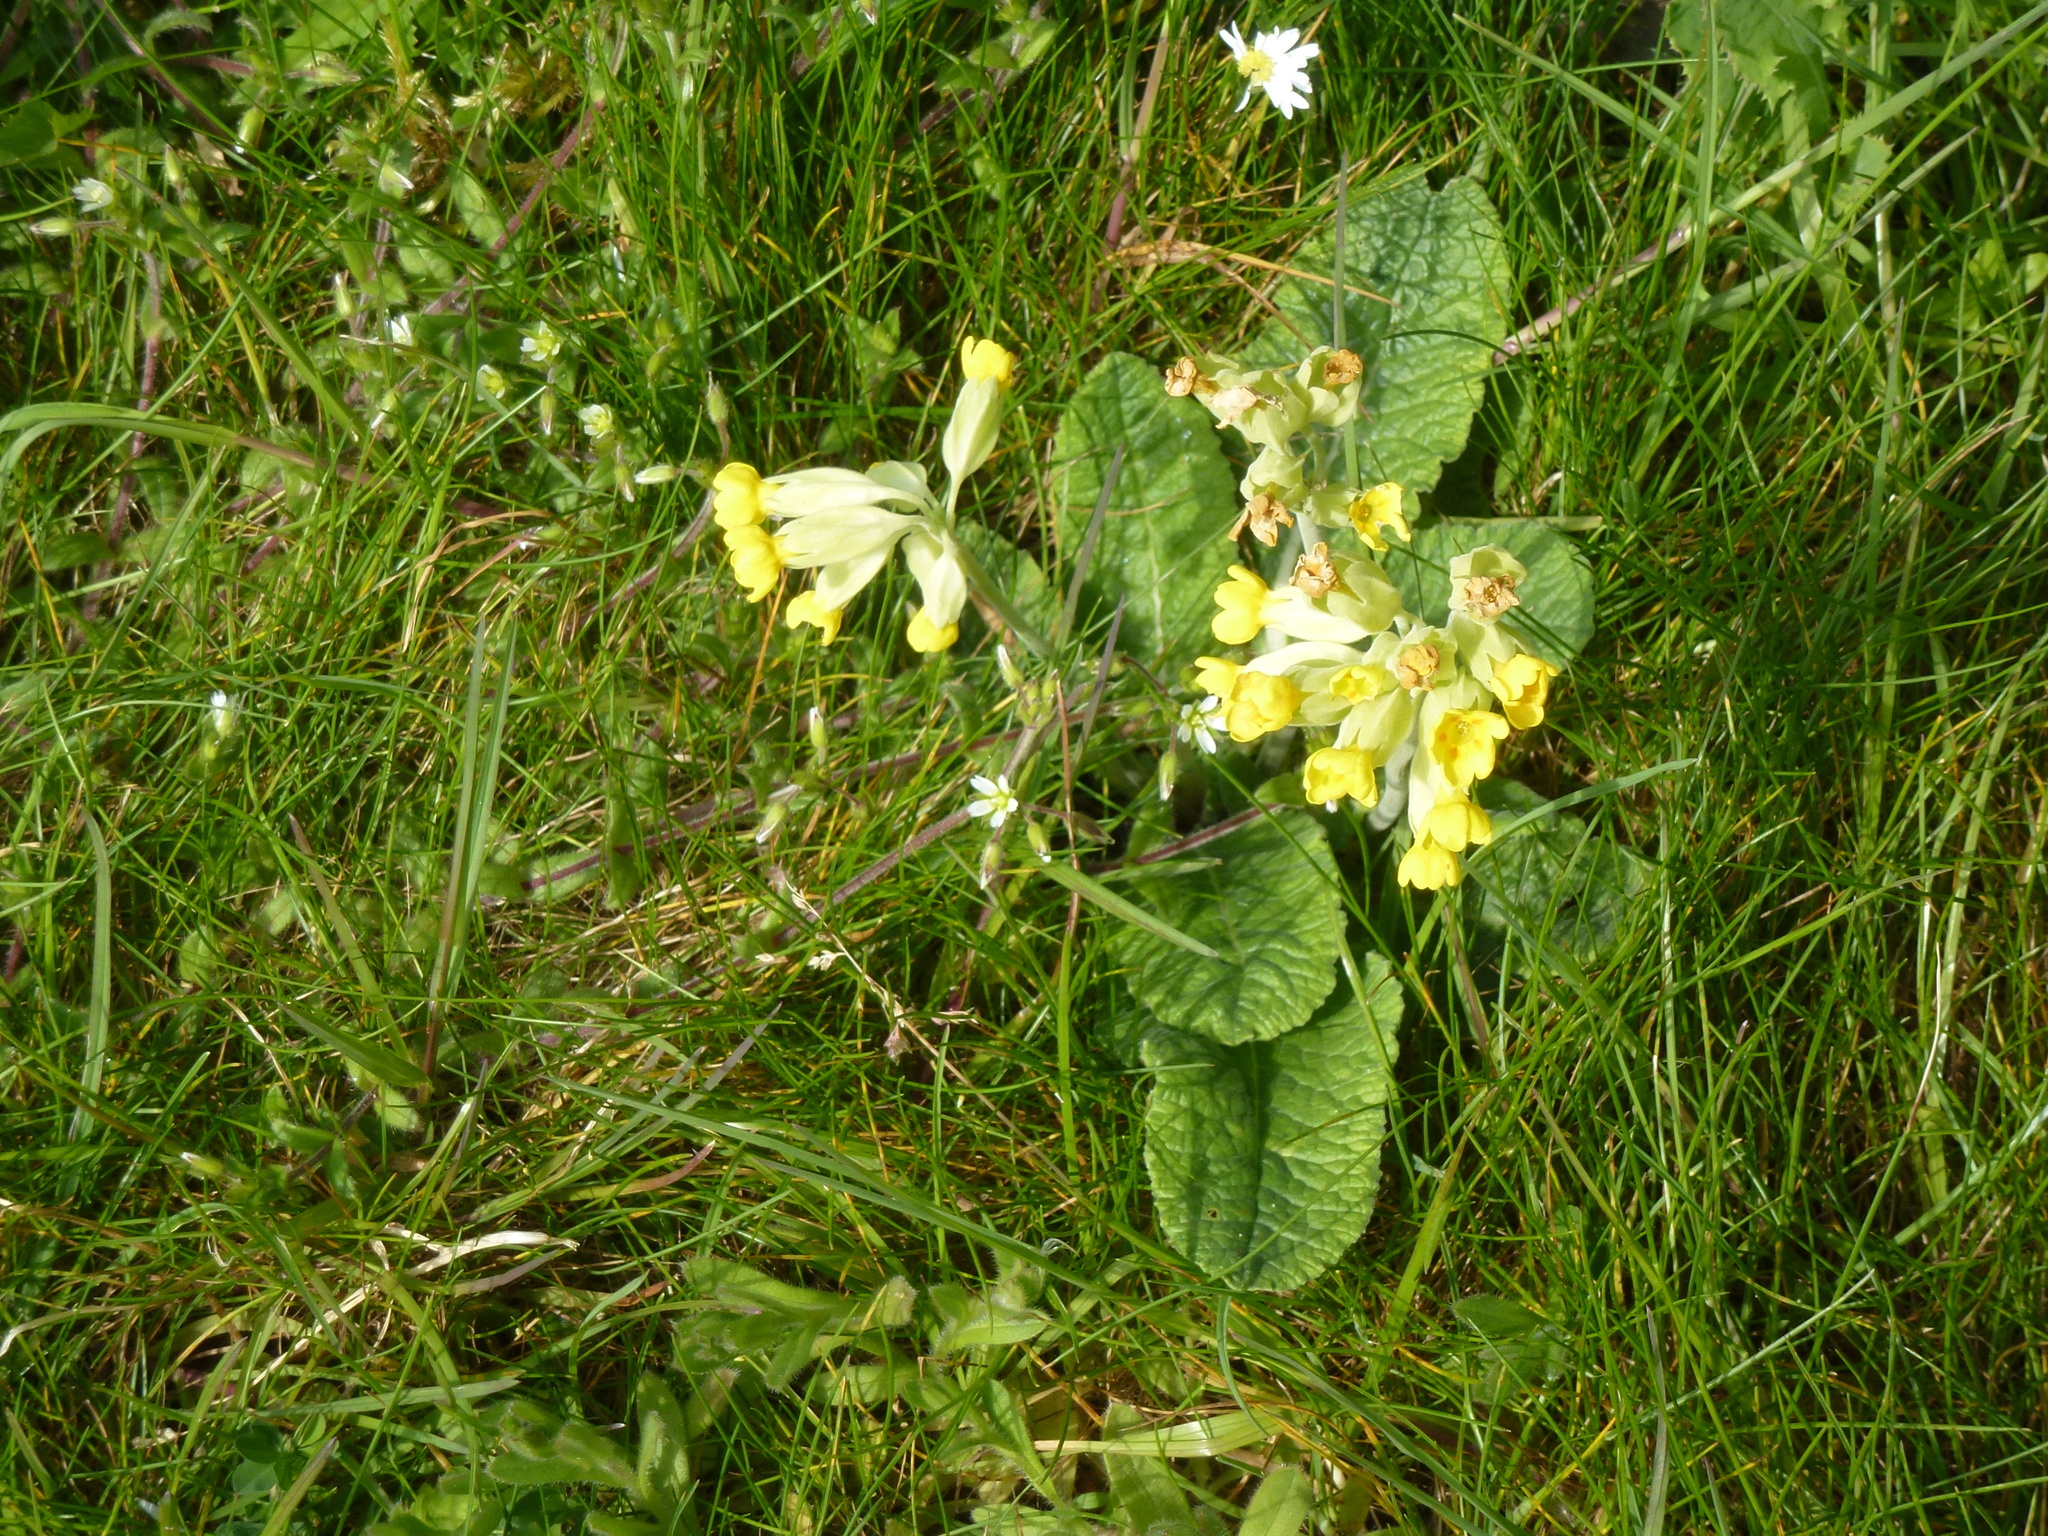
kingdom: Plantae
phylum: Tracheophyta
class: Magnoliopsida
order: Ericales
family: Primulaceae
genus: Primula
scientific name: Primula veris
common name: Cowslip
